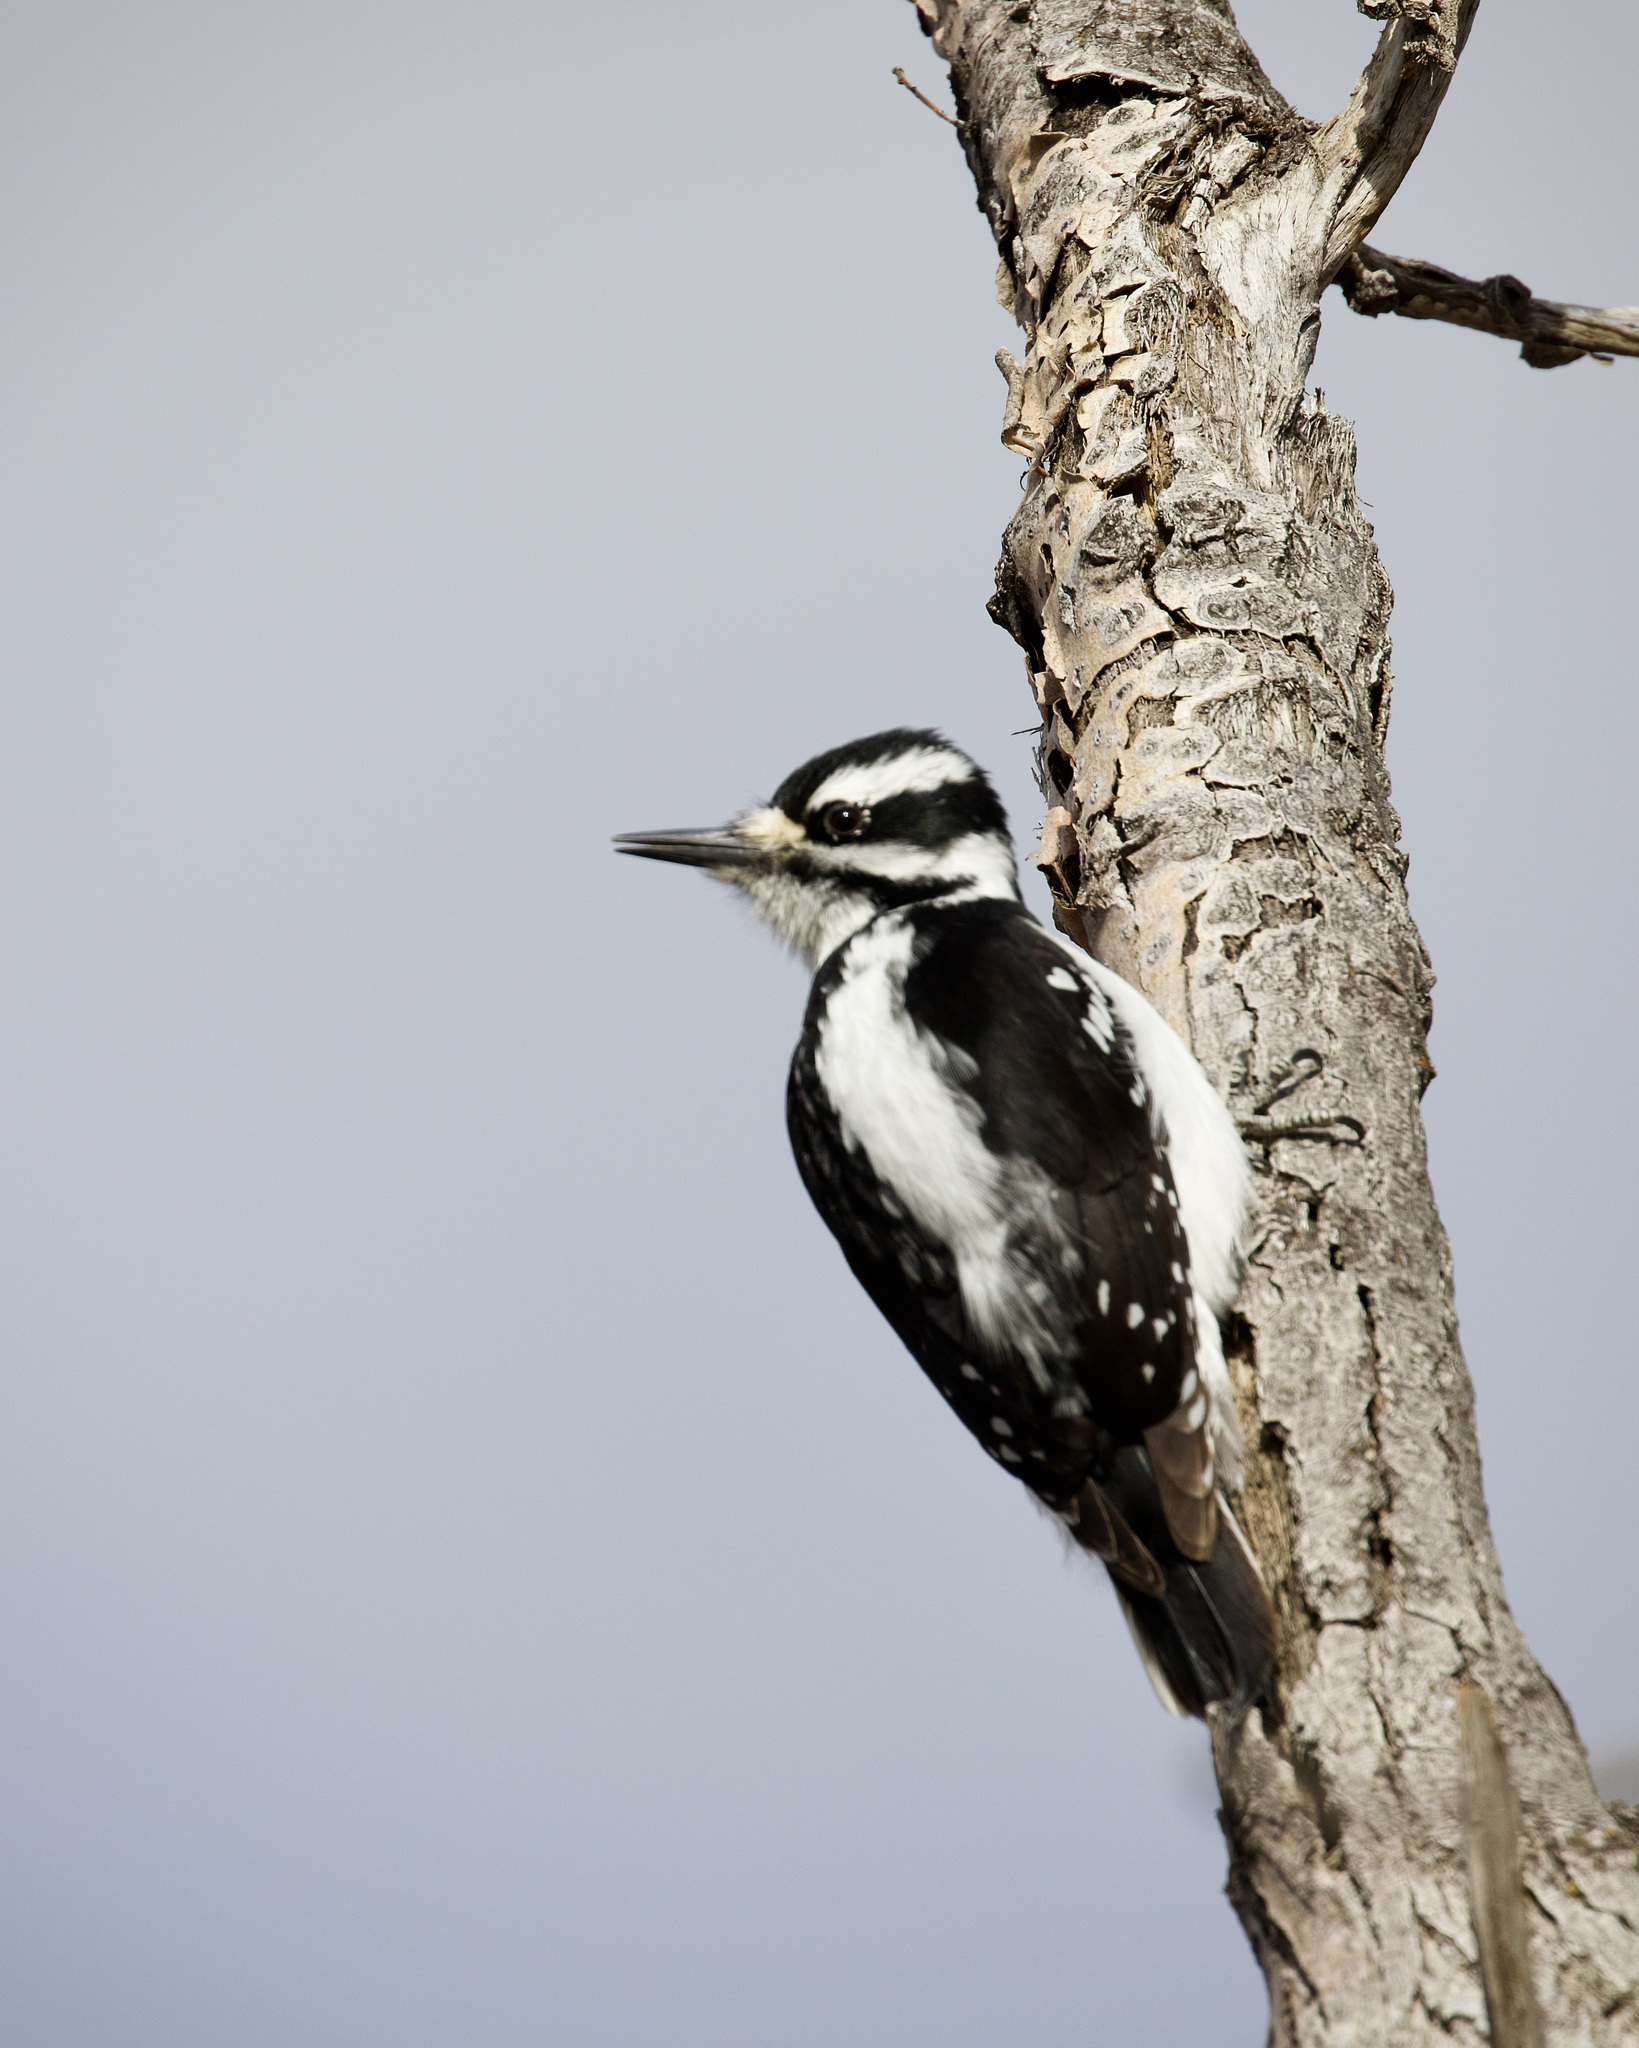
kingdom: Animalia
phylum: Chordata
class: Aves
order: Piciformes
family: Picidae
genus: Leuconotopicus
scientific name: Leuconotopicus villosus
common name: Hairy woodpecker
